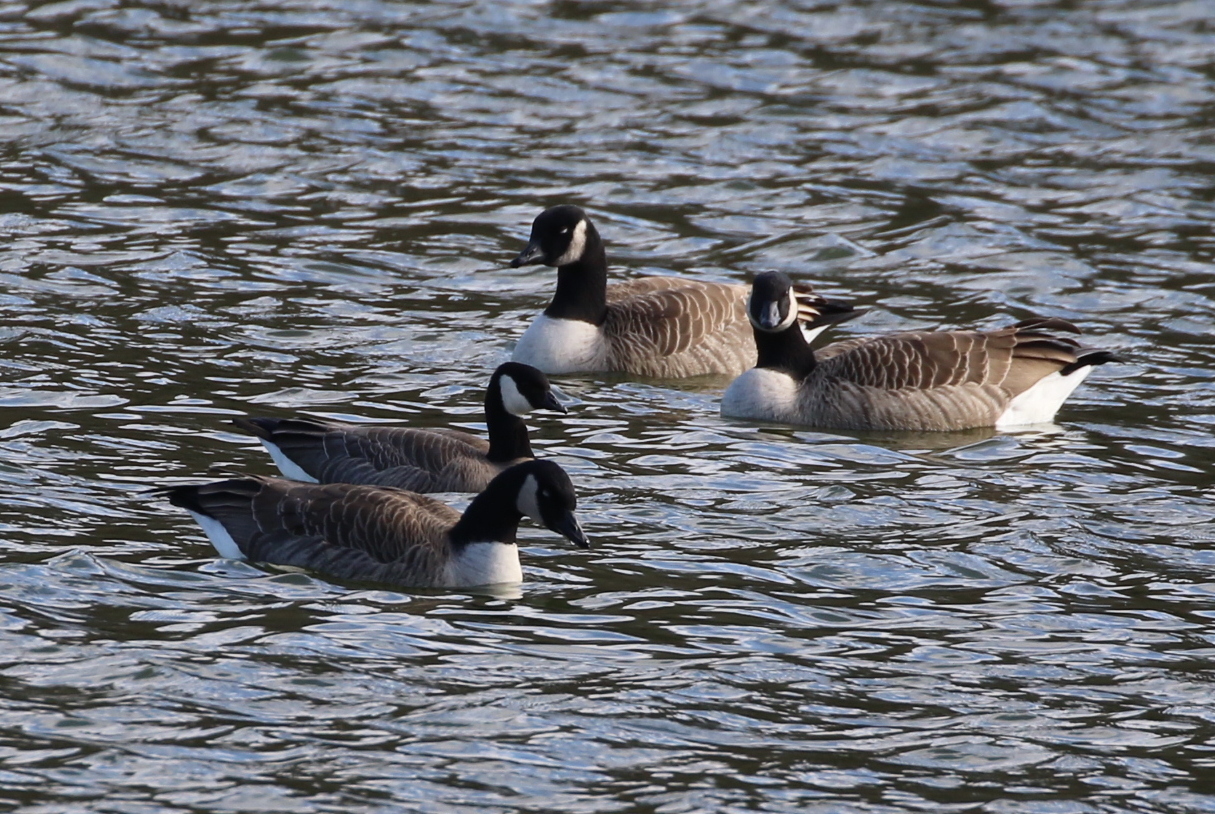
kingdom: Animalia
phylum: Chordata
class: Aves
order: Anseriformes
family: Anatidae
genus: Branta
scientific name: Branta hutchinsii
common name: Cackling goose
